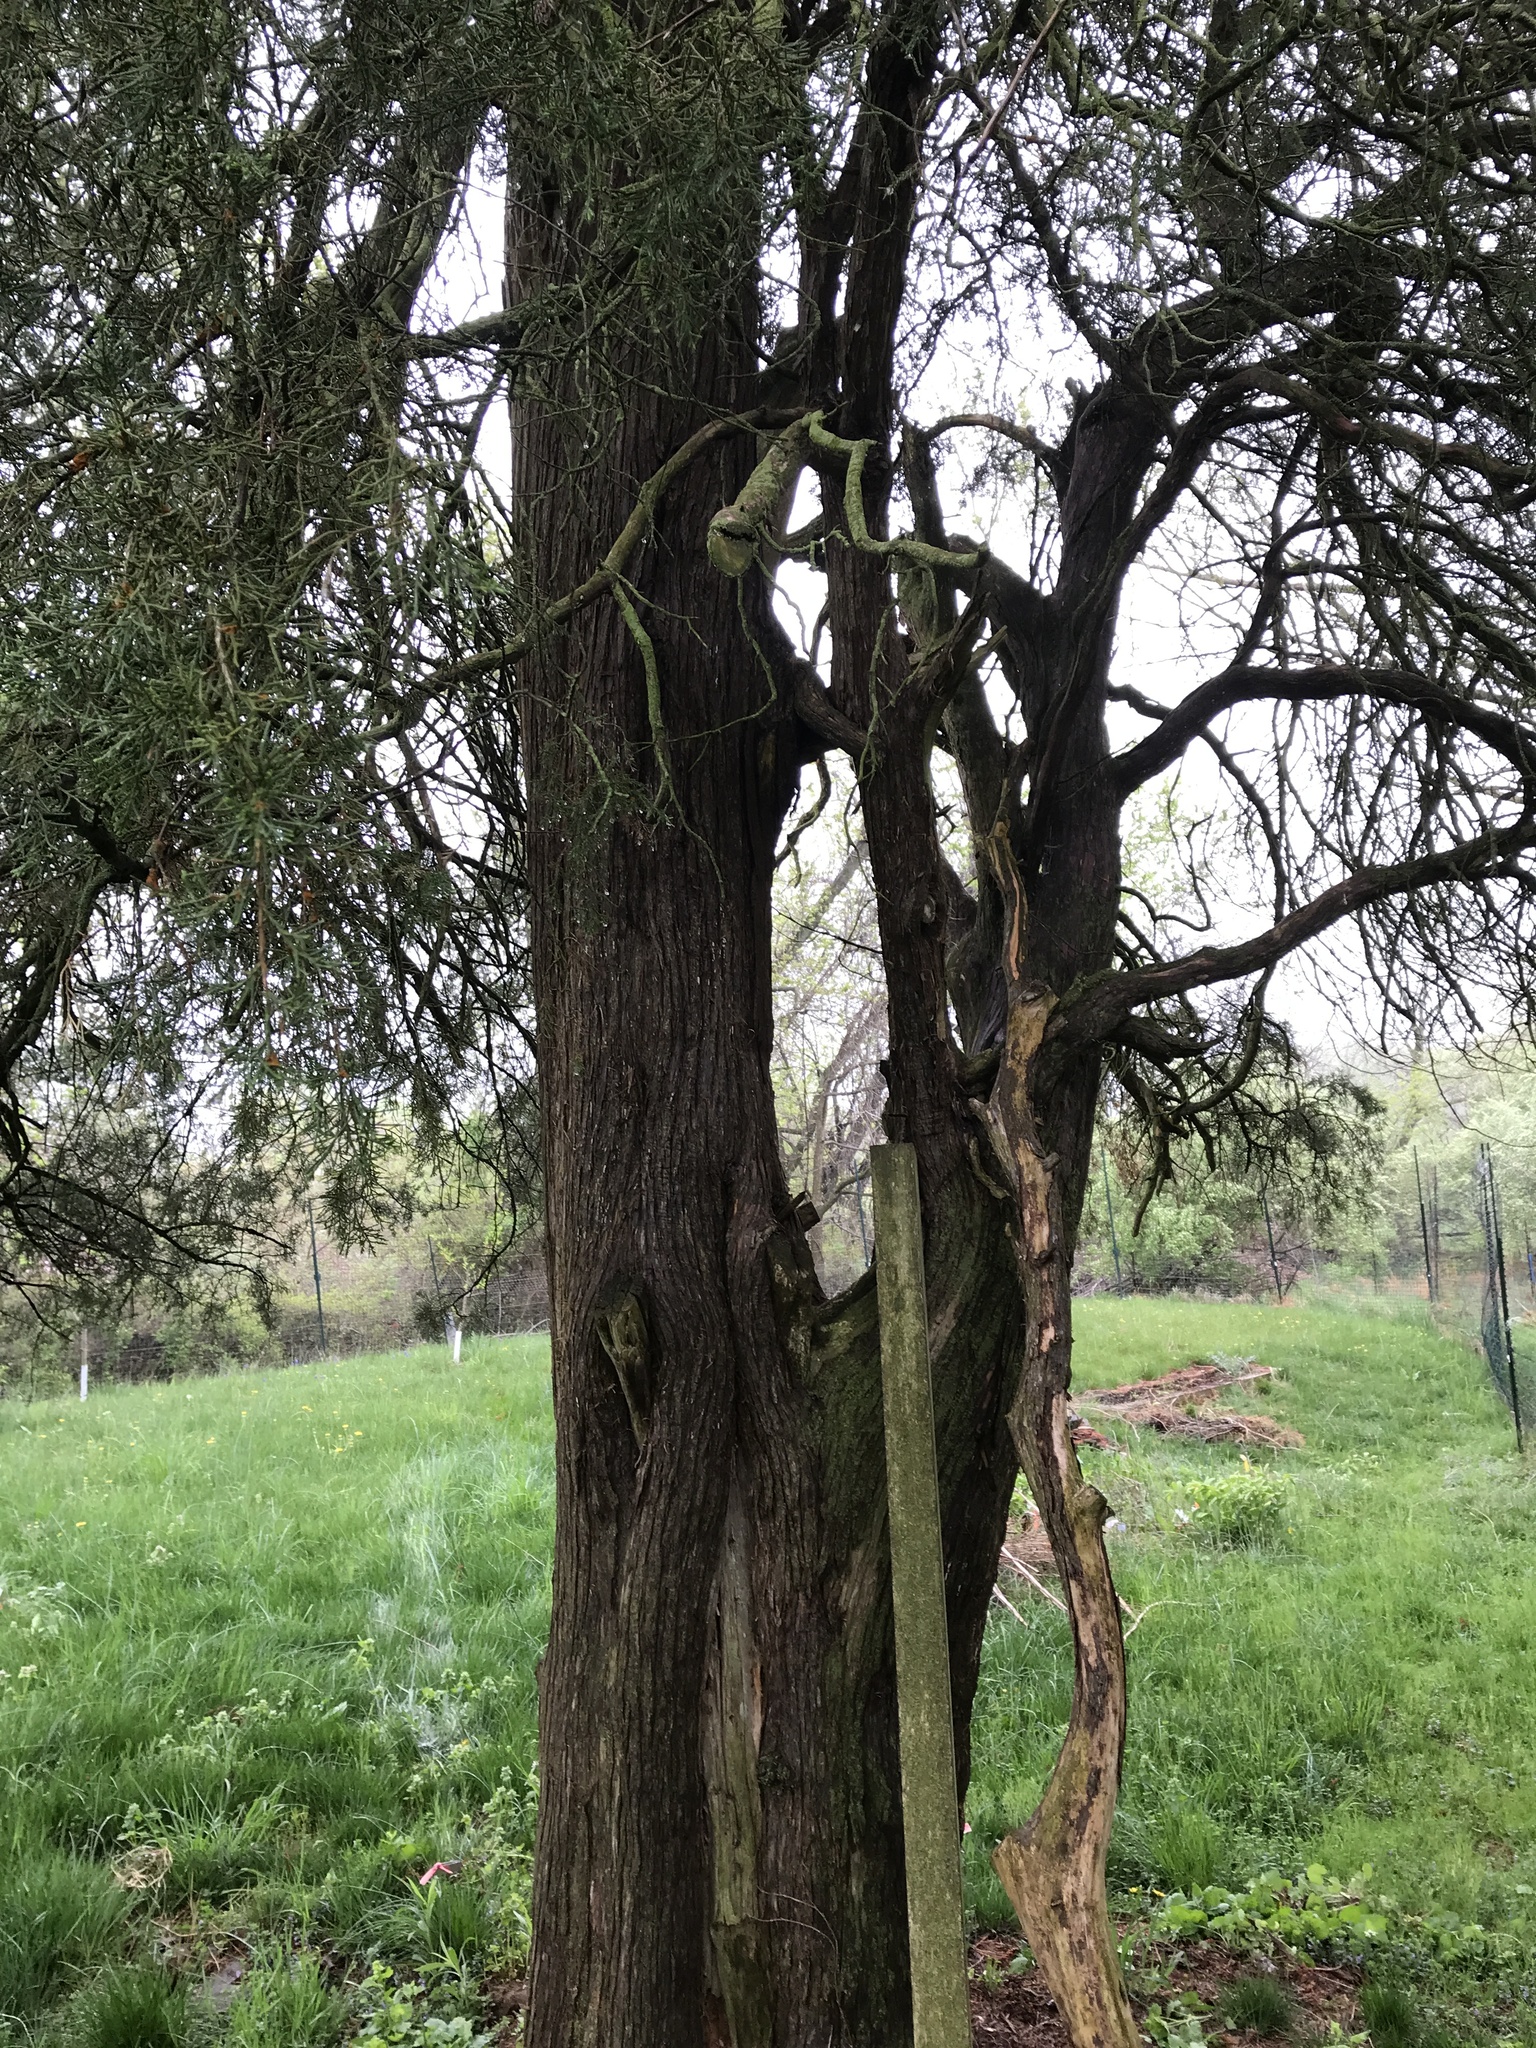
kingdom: Plantae
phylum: Tracheophyta
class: Pinopsida
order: Pinales
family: Cupressaceae
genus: Juniperus
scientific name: Juniperus virginiana
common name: Red juniper
